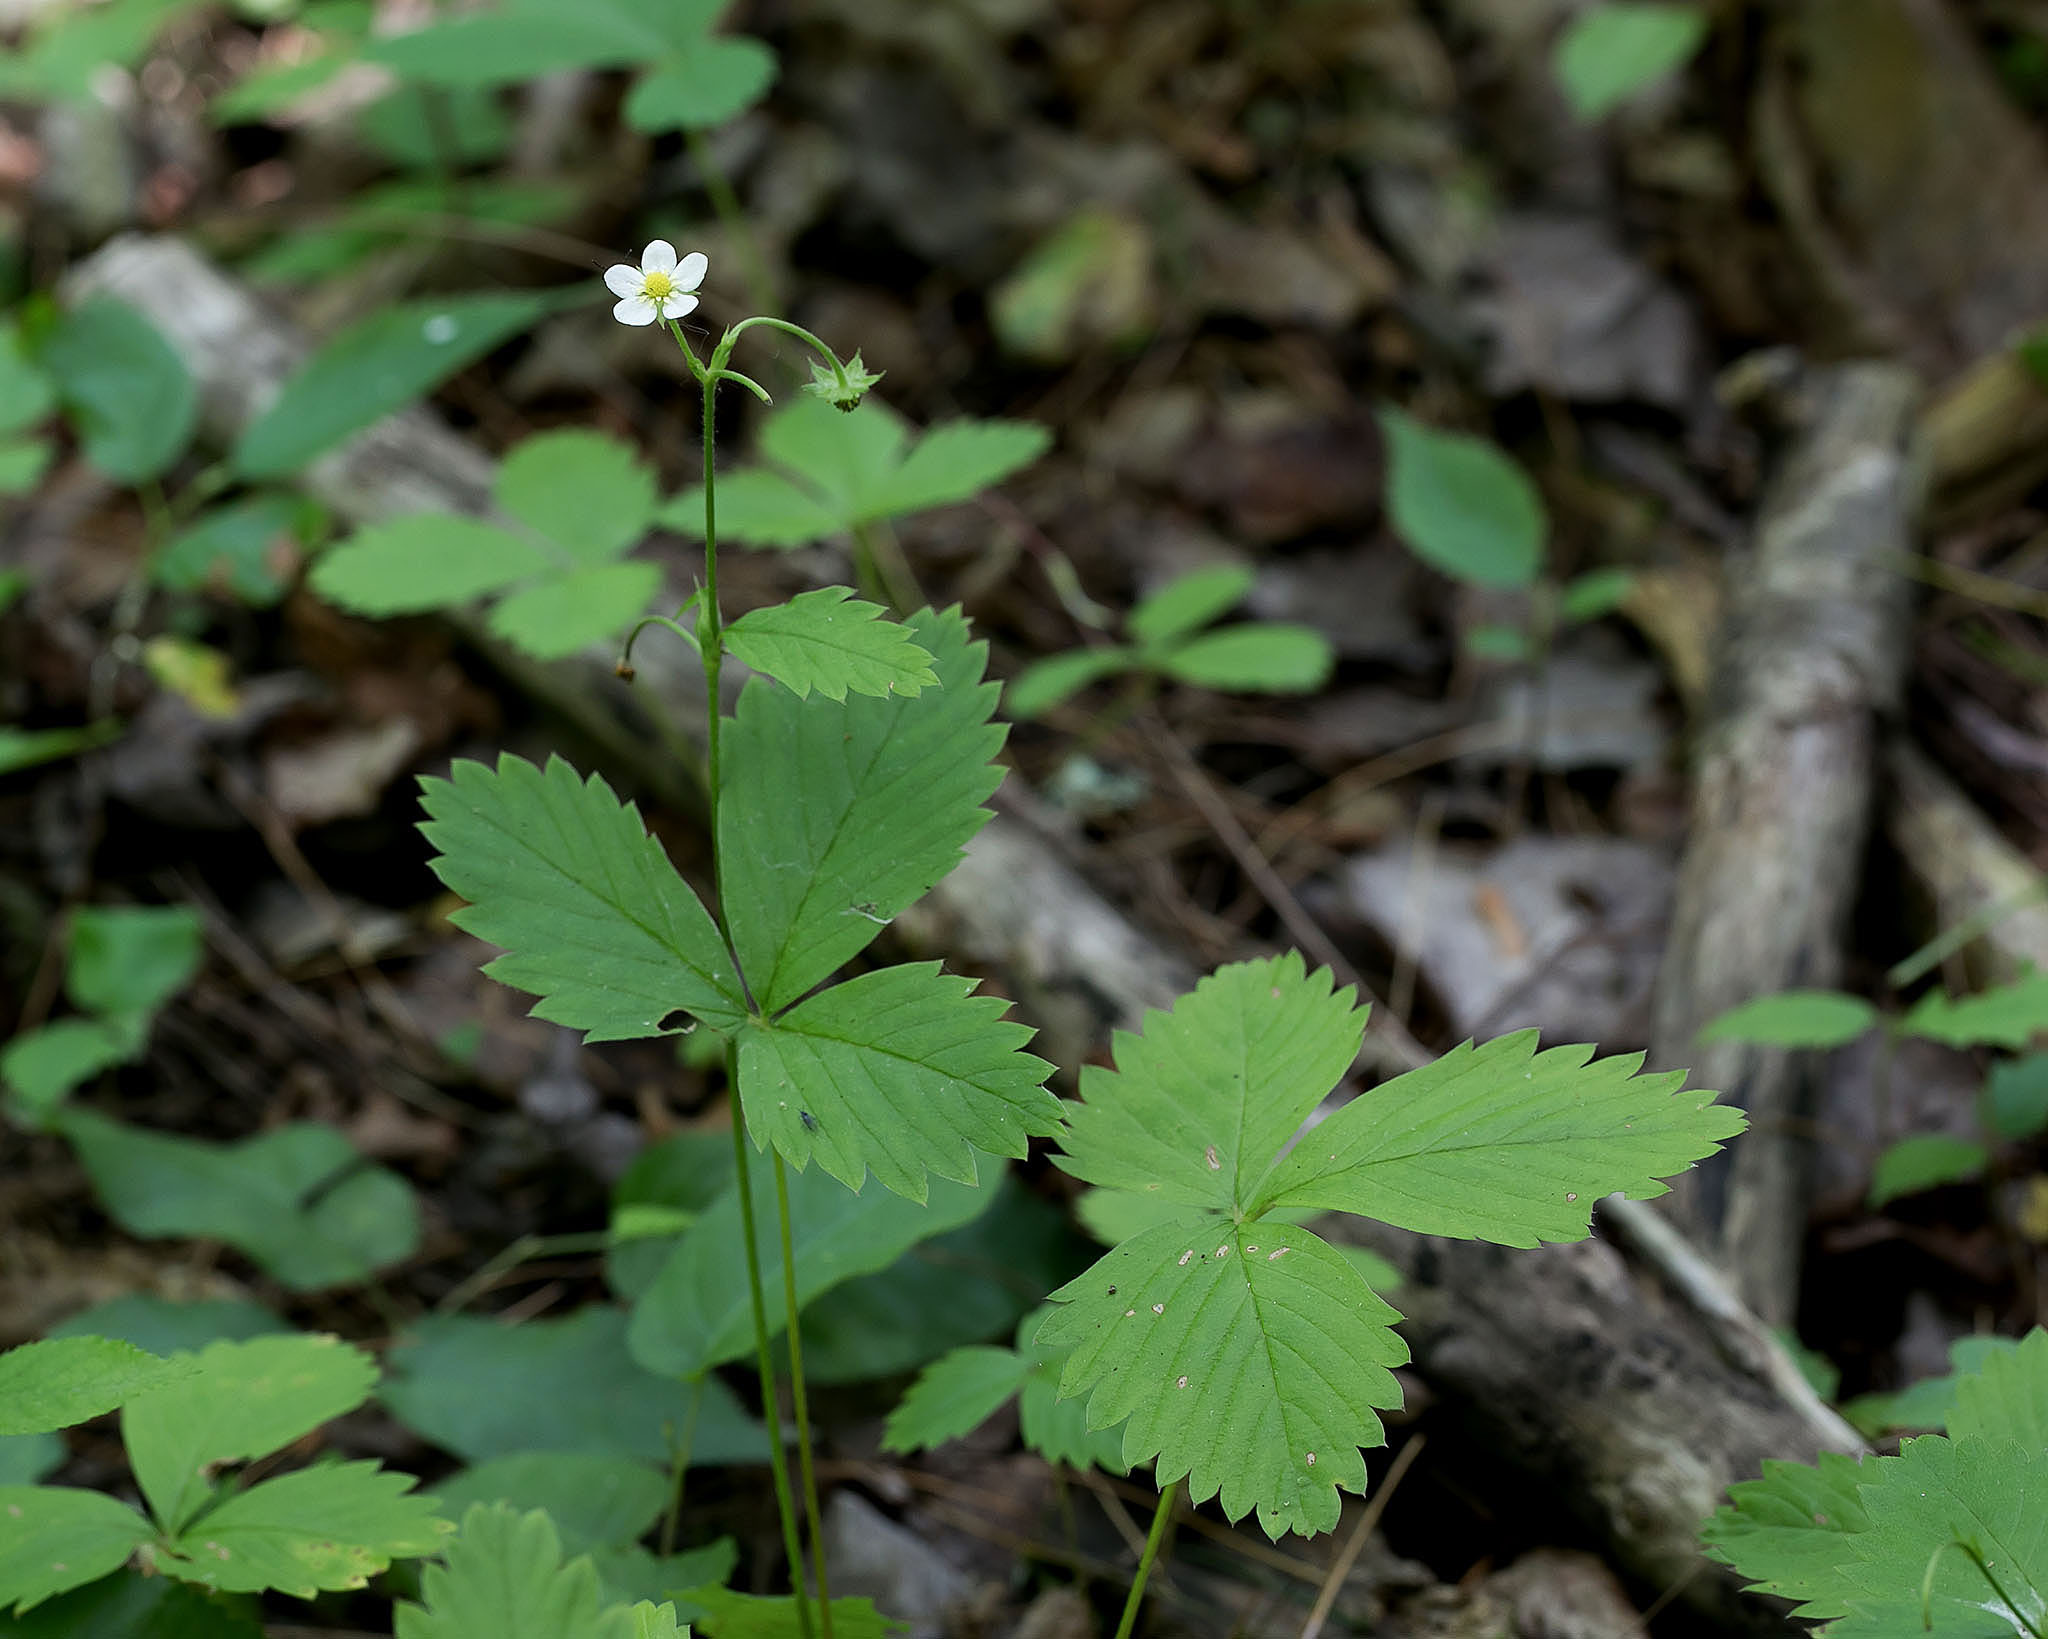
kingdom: Plantae
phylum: Tracheophyta
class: Magnoliopsida
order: Rosales
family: Rosaceae
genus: Fragaria
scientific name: Fragaria vesca
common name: Wild strawberry
